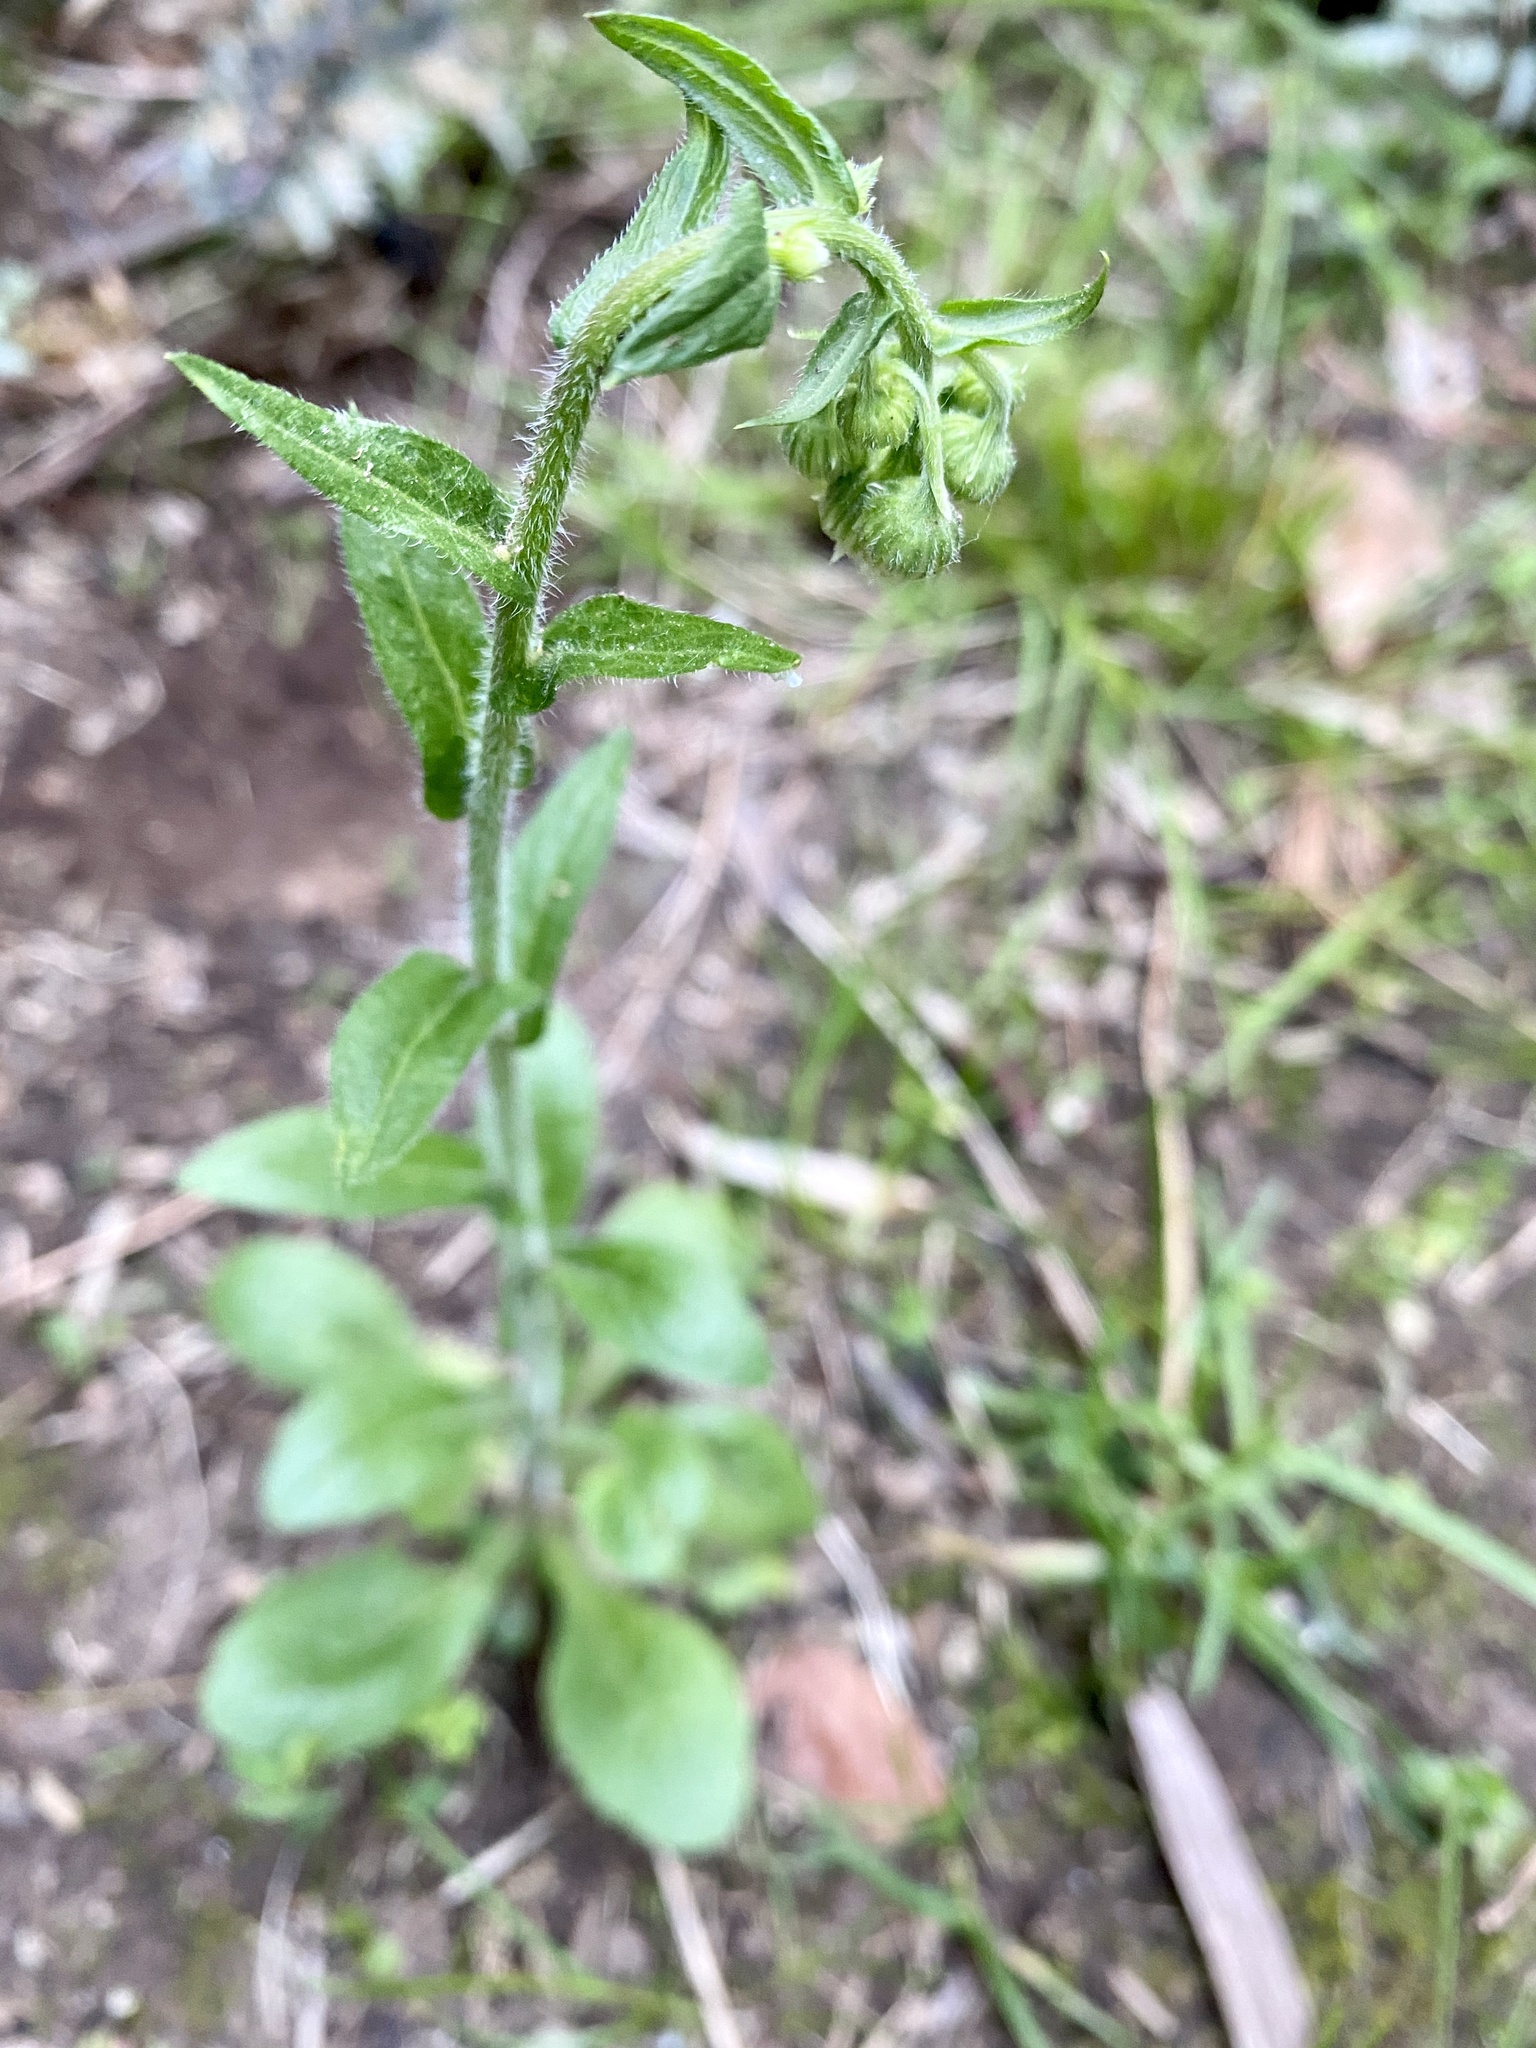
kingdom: Plantae
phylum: Tracheophyta
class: Magnoliopsida
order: Asterales
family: Asteraceae
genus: Erigeron
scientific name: Erigeron philadelphicus
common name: Robin's-plantain
